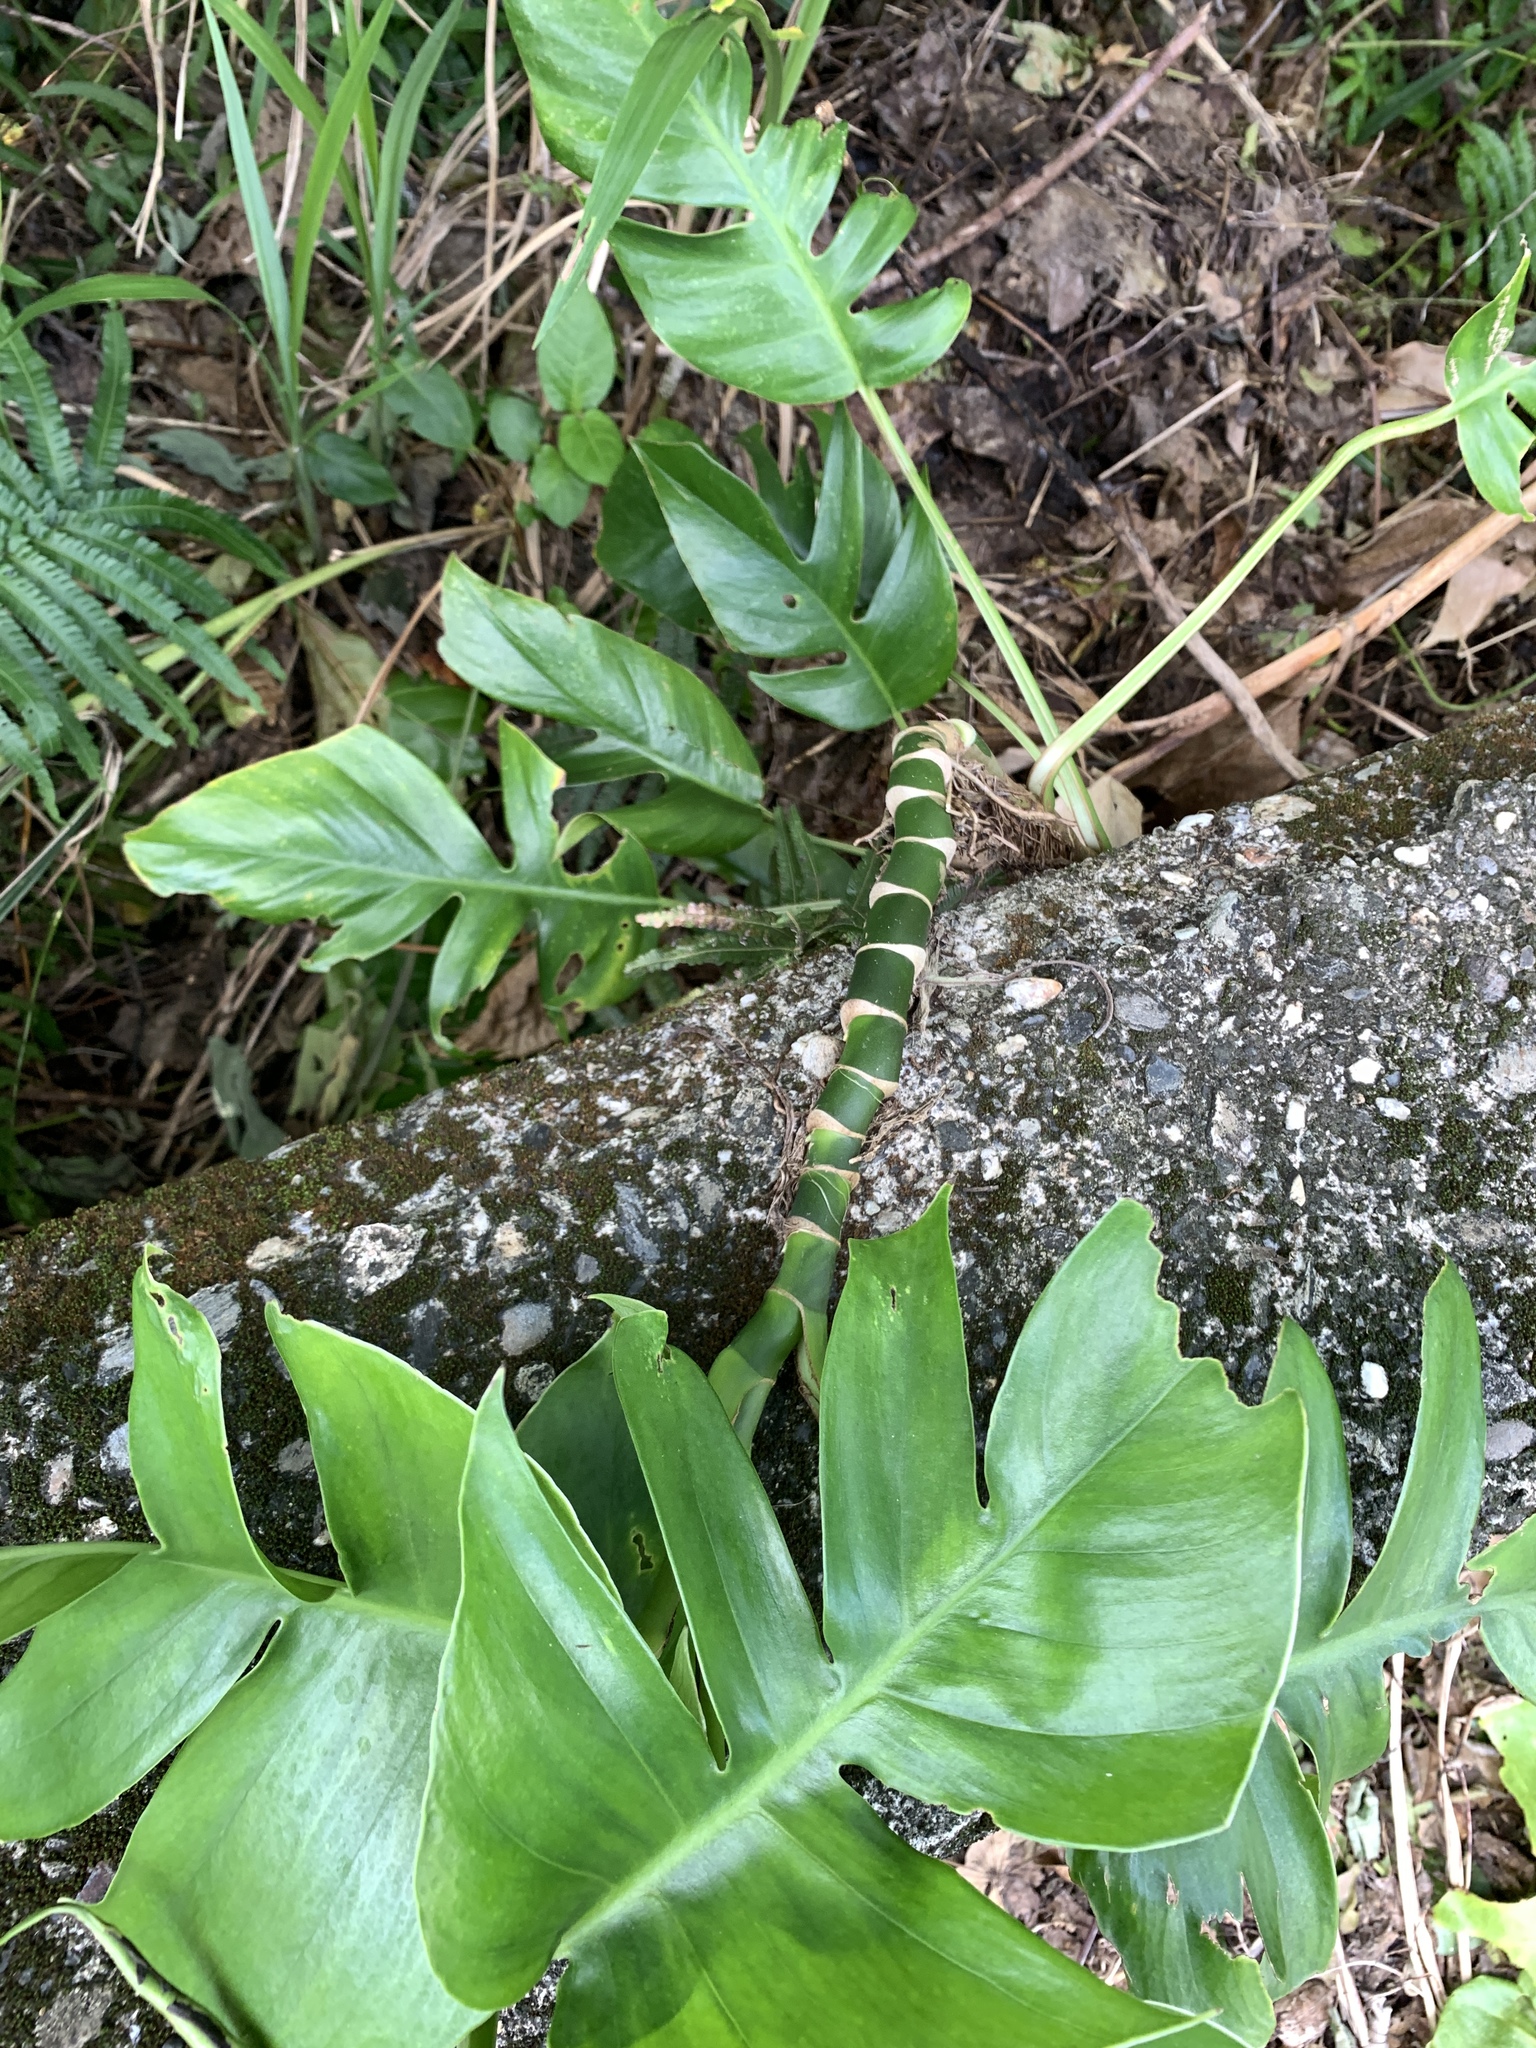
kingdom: Plantae
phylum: Tracheophyta
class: Liliopsida
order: Alismatales
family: Araceae
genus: Epipremnum
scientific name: Epipremnum pinnatum
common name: Centipede tongavine
